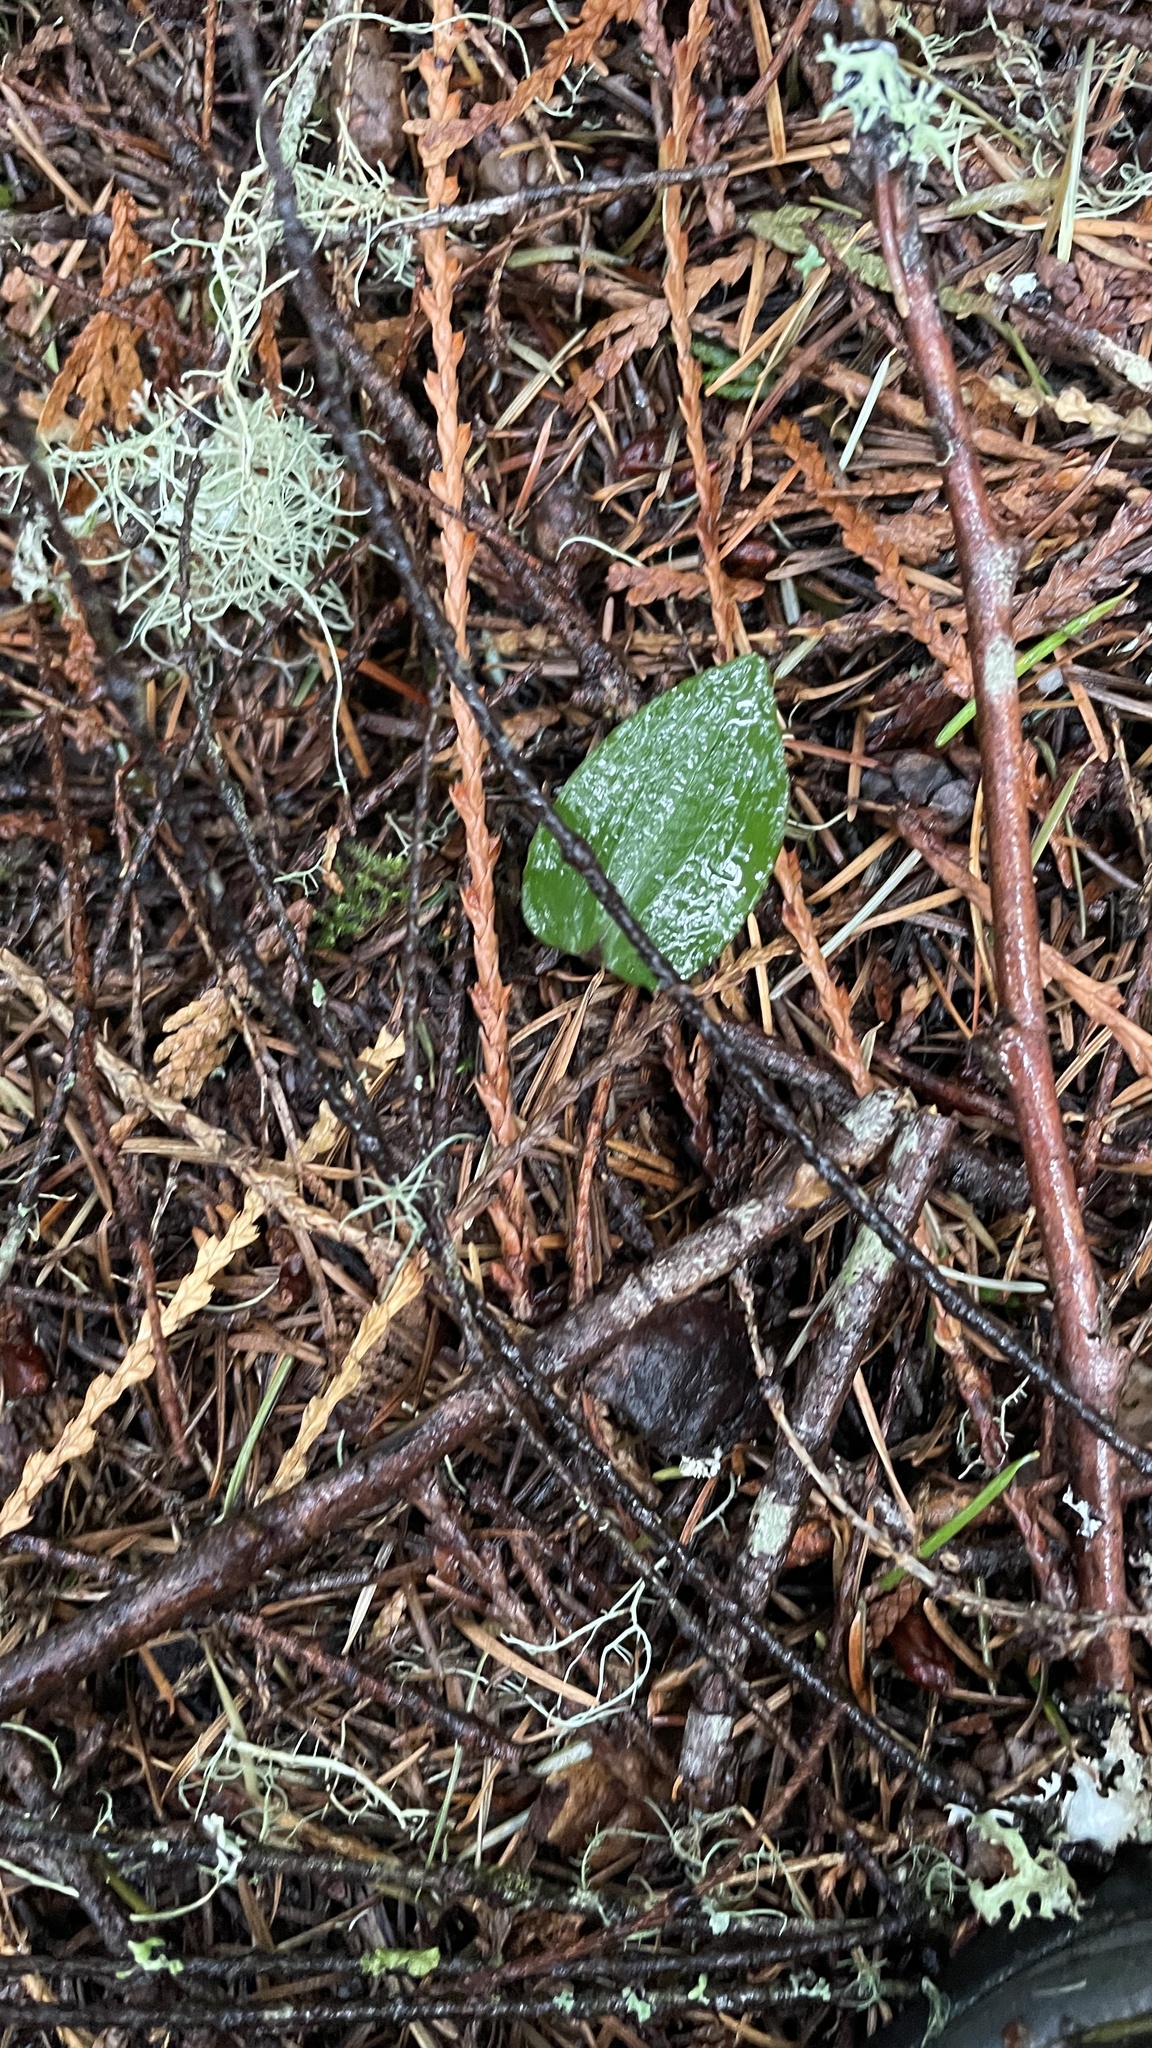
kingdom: Plantae
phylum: Tracheophyta
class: Liliopsida
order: Asparagales
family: Orchidaceae
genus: Calypso
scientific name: Calypso bulbosa
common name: Calypso
